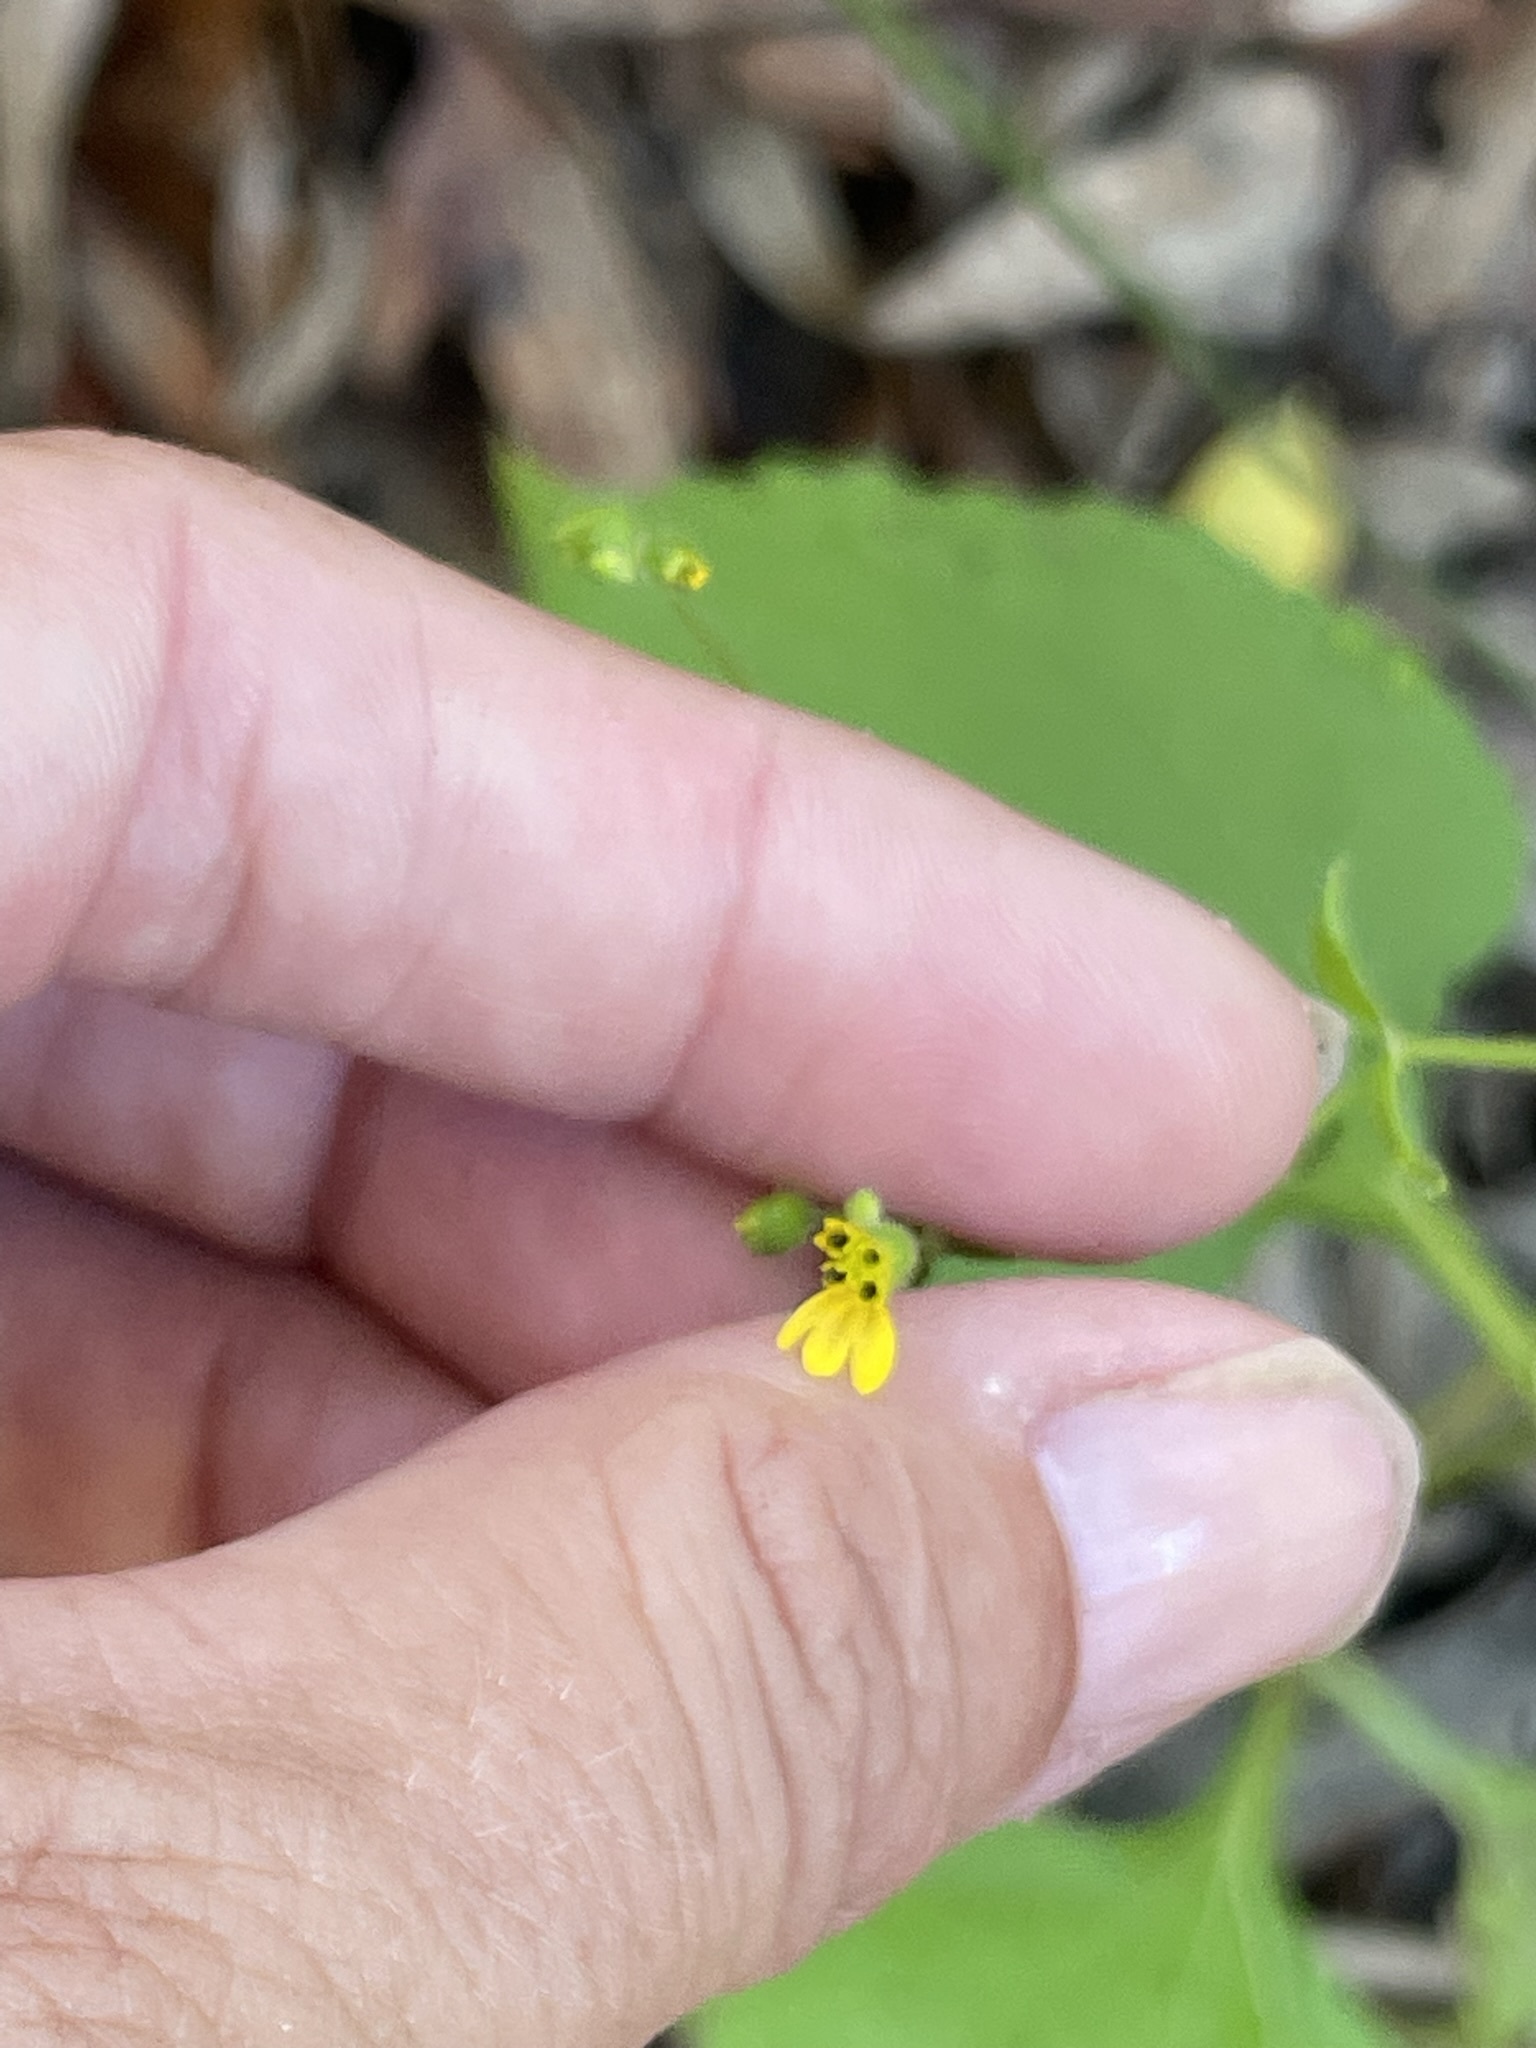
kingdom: Plantae
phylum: Tracheophyta
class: Magnoliopsida
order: Asterales
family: Asteraceae
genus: Milleria
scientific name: Milleria quinqueflora
